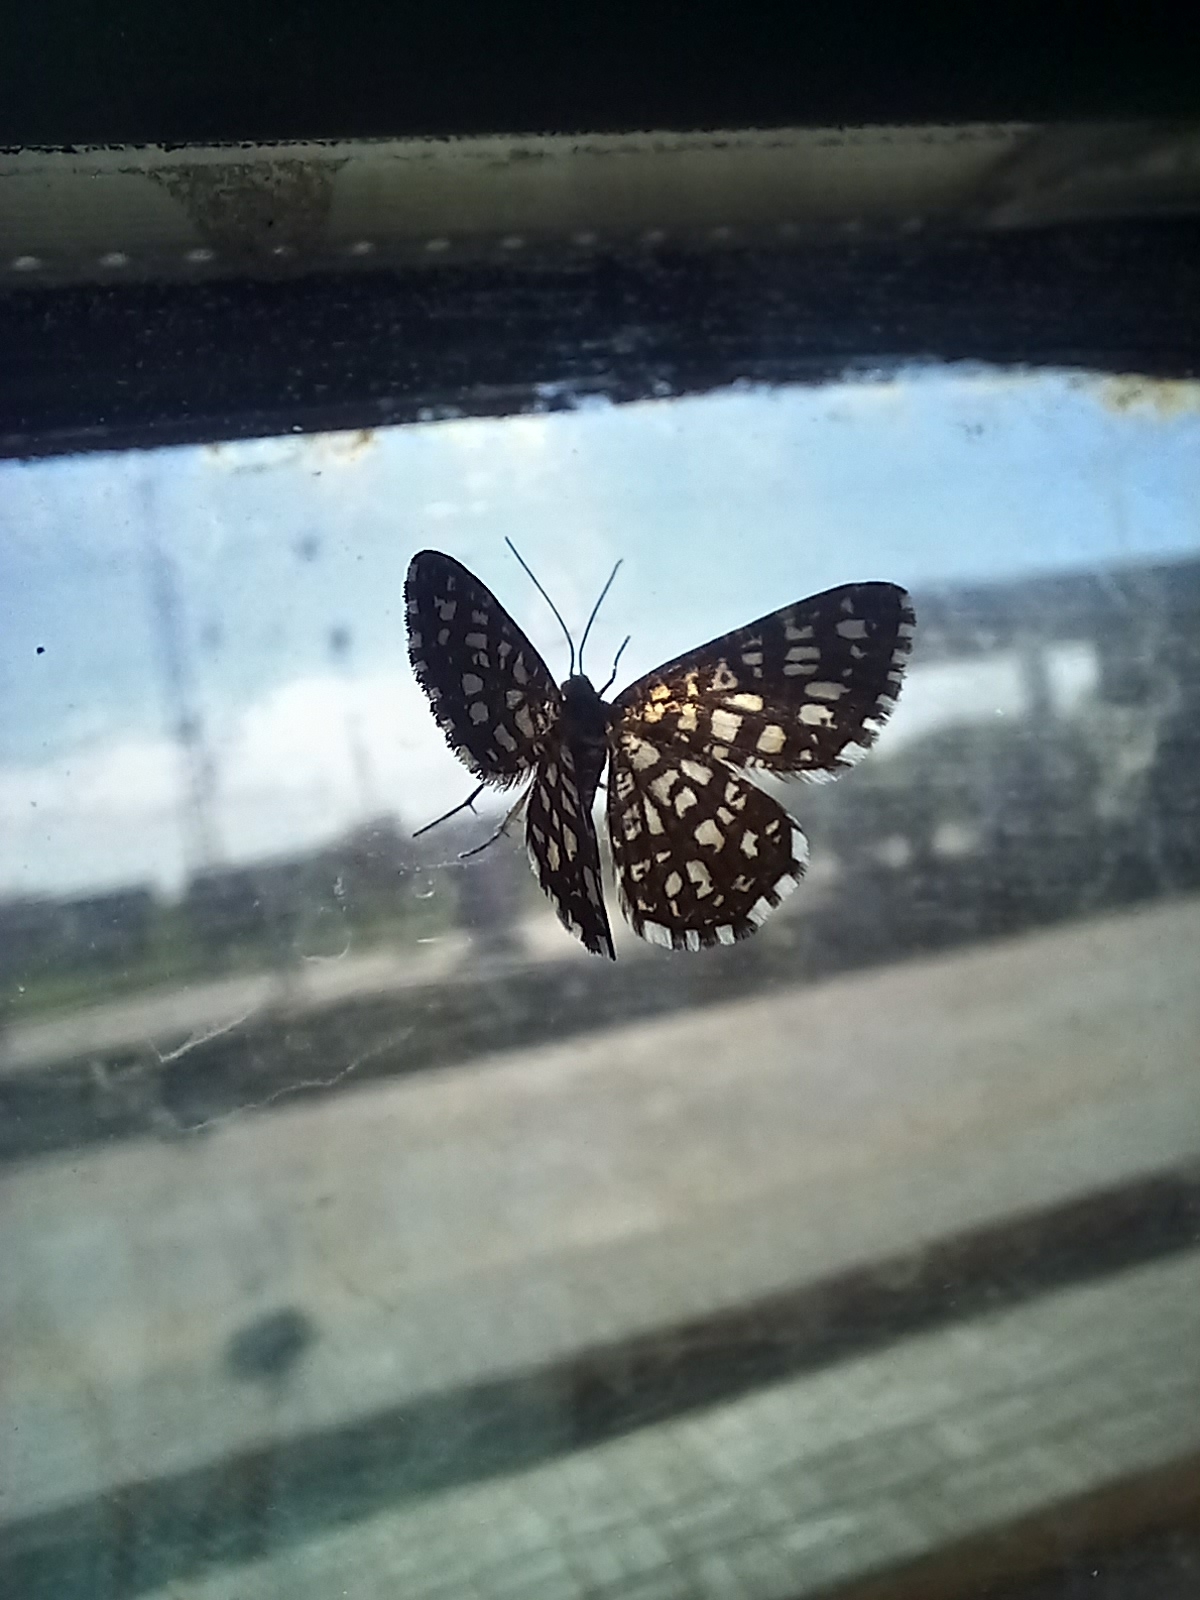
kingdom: Animalia
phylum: Arthropoda
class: Insecta
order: Lepidoptera
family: Geometridae
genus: Chiasmia
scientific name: Chiasmia clathrata
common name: Latticed heath
